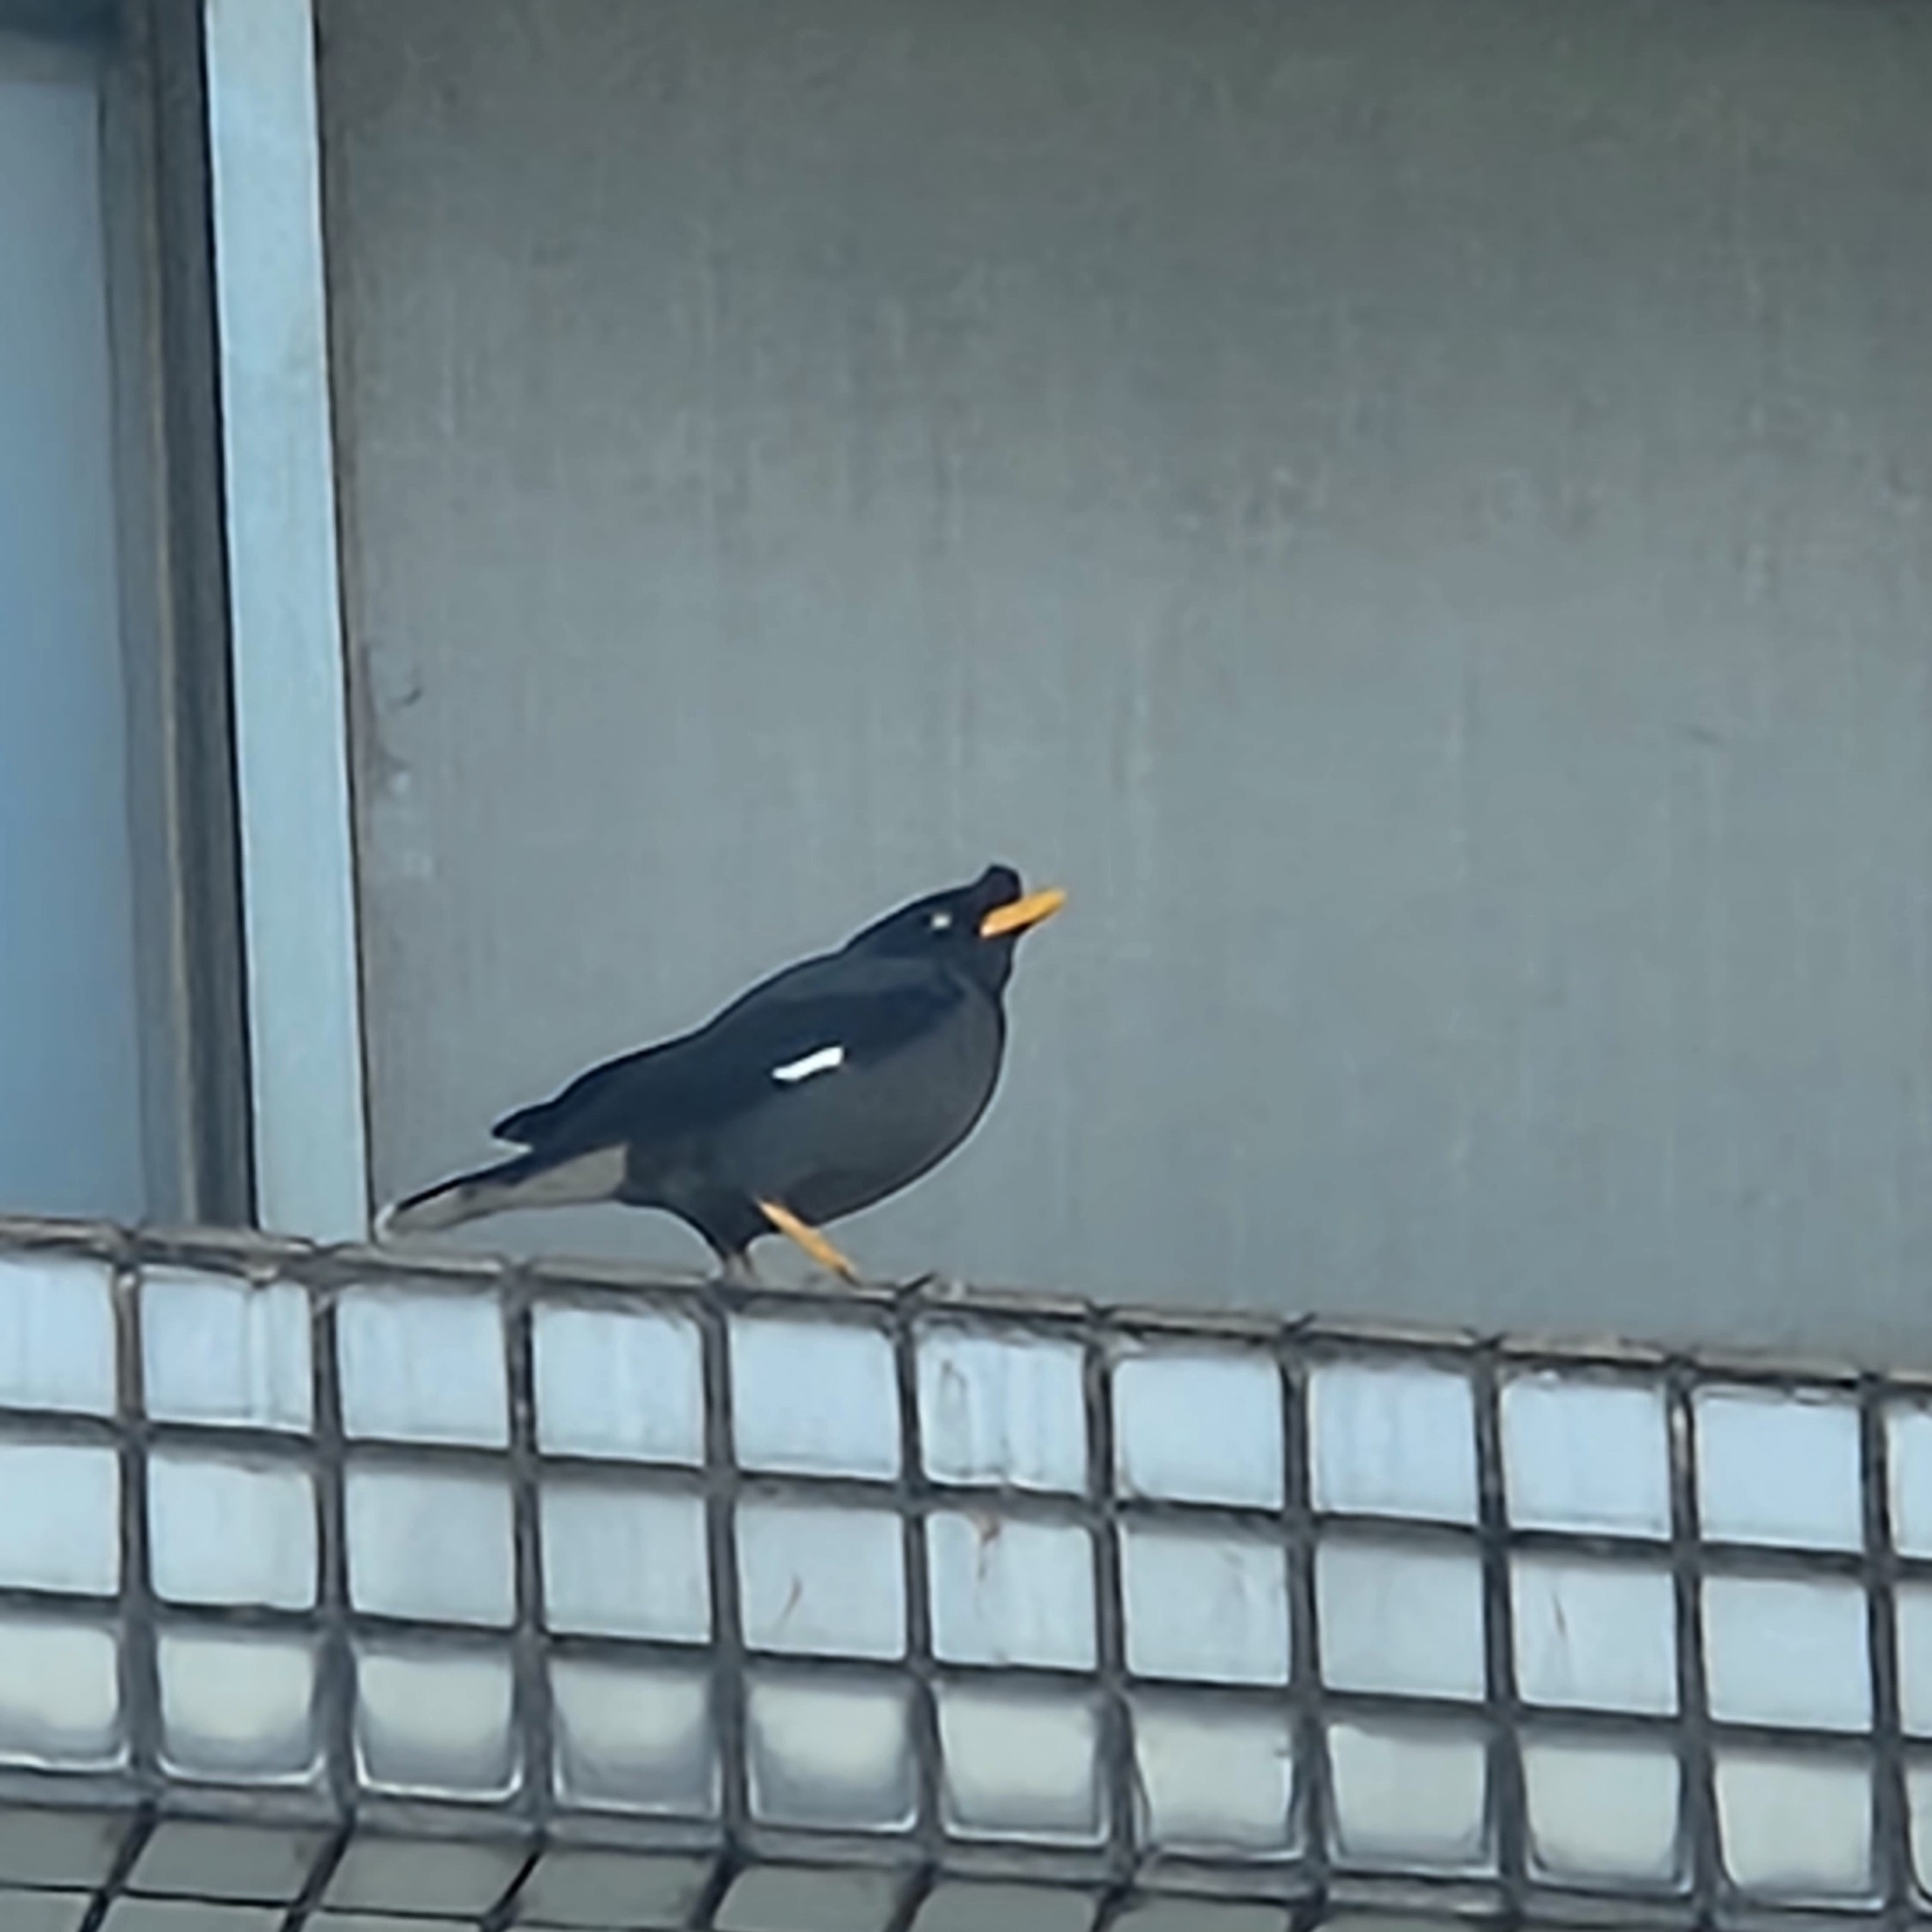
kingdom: Animalia
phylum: Chordata
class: Aves
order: Passeriformes
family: Sturnidae
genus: Acridotheres
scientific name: Acridotheres javanicus
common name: Javan myna
